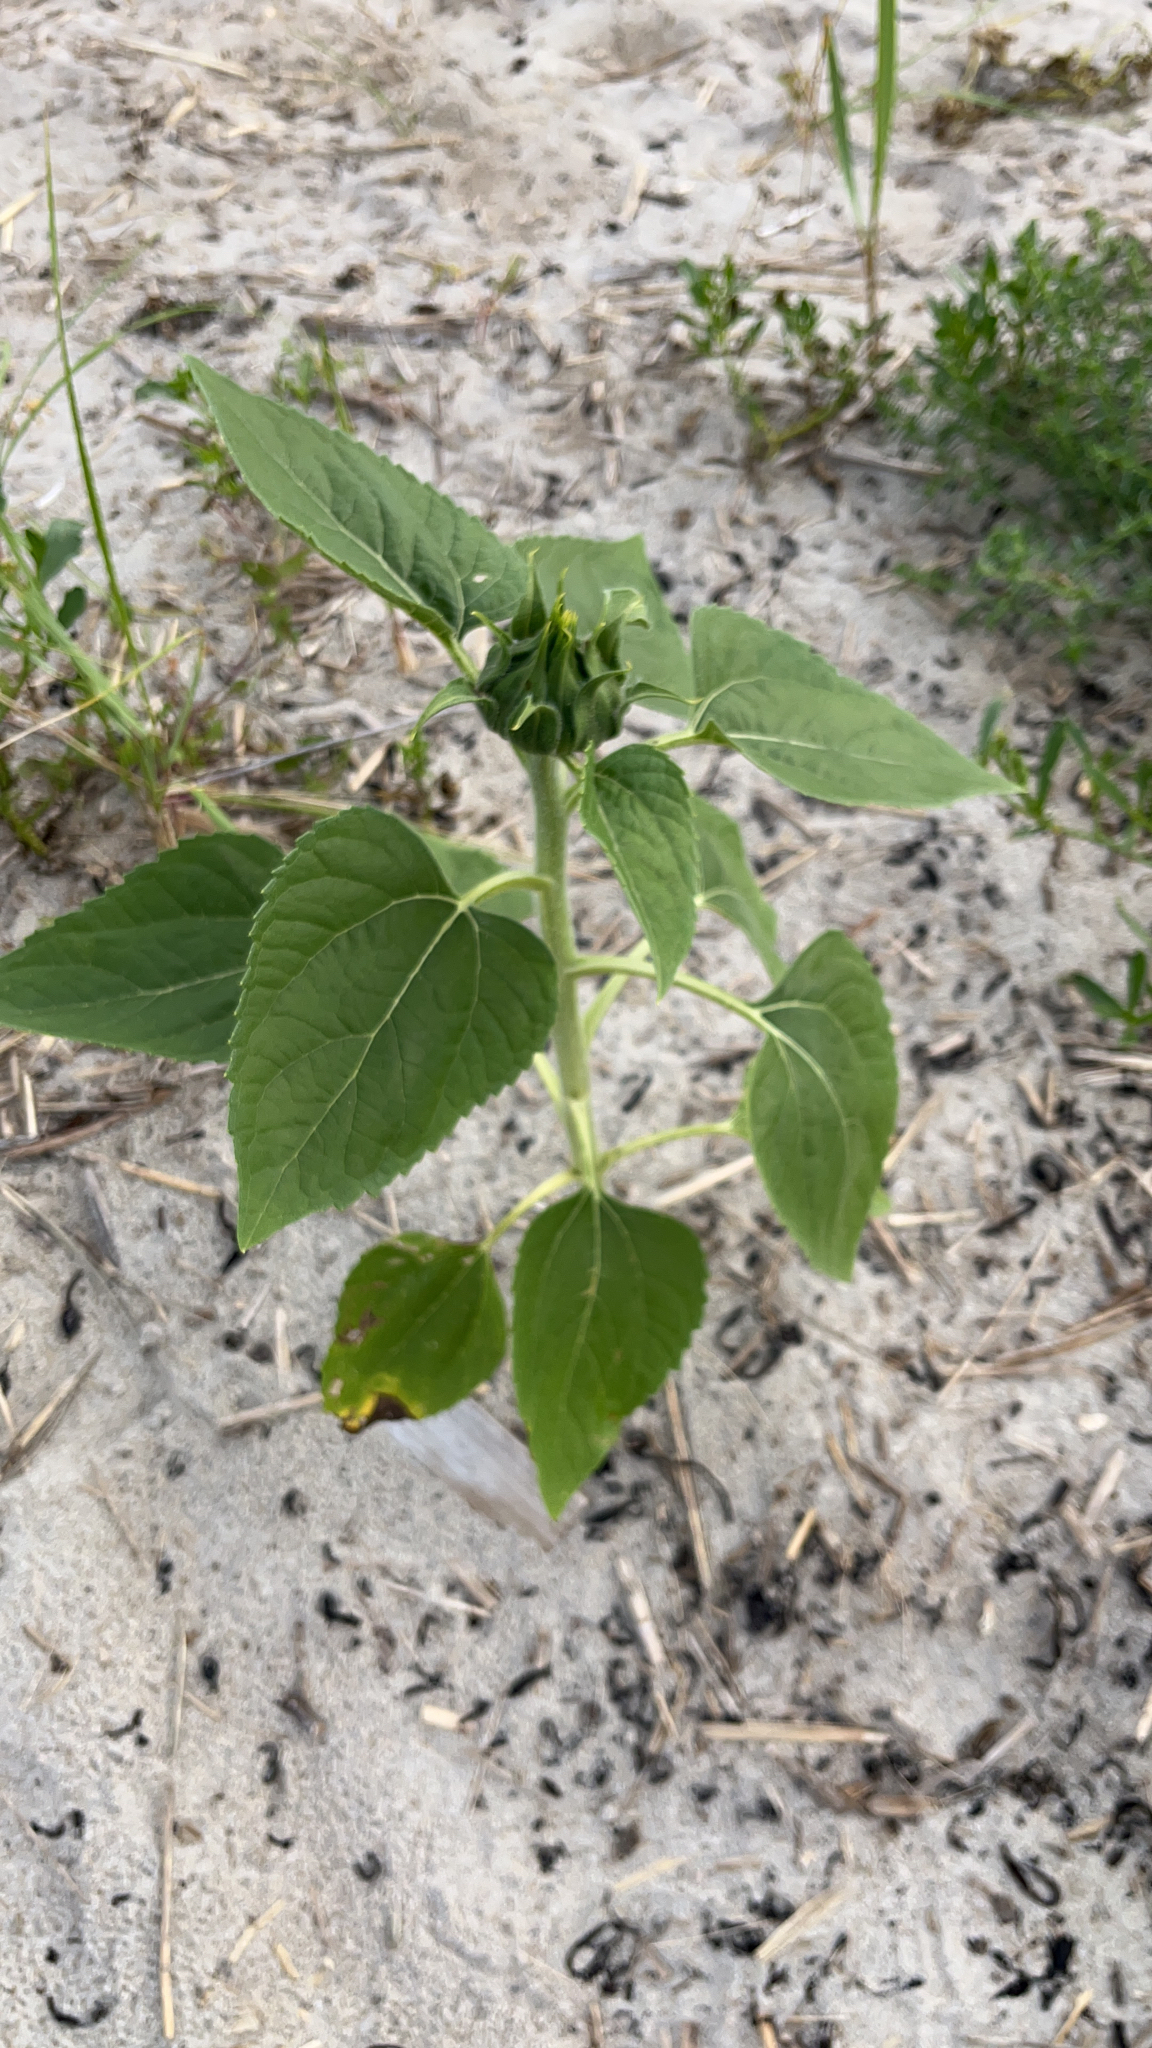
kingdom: Plantae
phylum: Tracheophyta
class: Magnoliopsida
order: Asterales
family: Asteraceae
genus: Helianthus
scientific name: Helianthus annuus
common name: Sunflower
